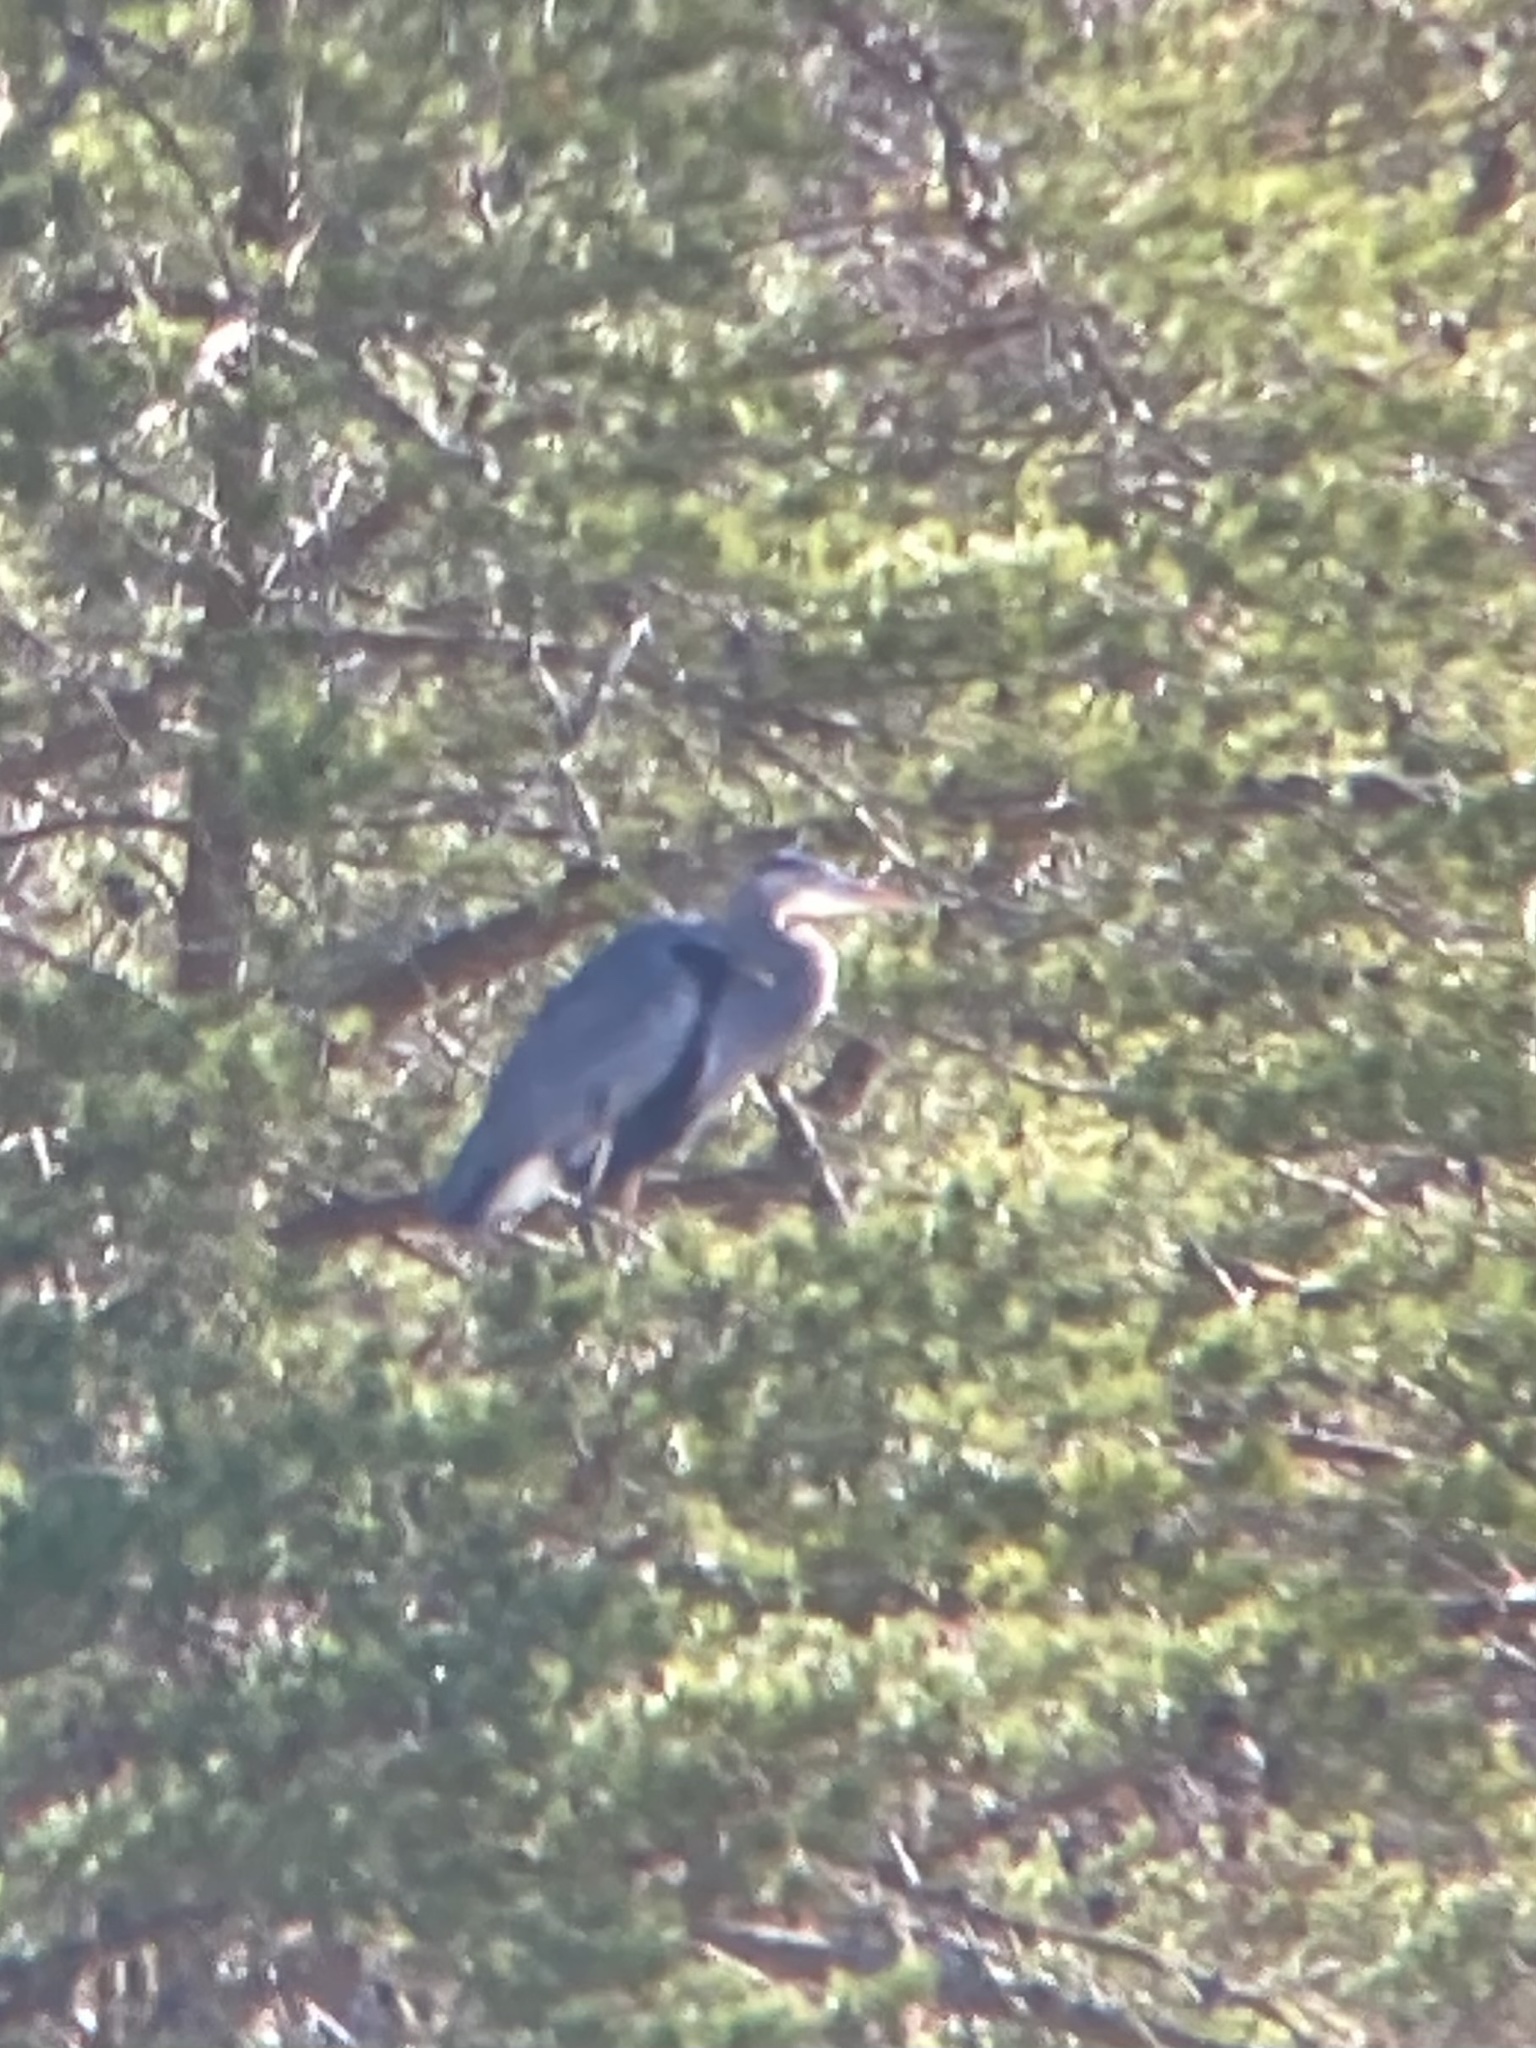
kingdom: Animalia
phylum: Chordata
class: Aves
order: Pelecaniformes
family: Ardeidae
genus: Ardea
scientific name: Ardea herodias
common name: Great blue heron
